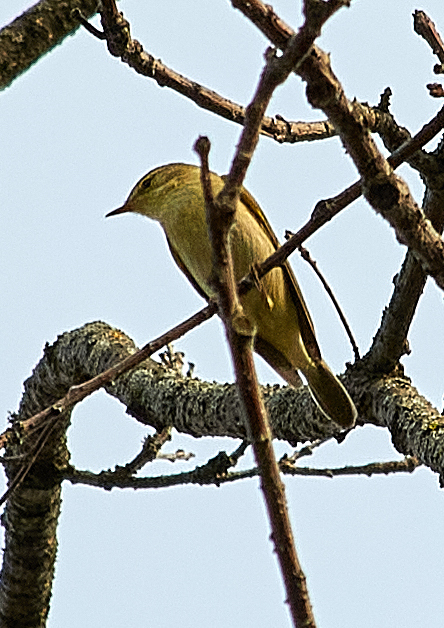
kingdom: Animalia
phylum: Chordata
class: Aves
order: Passeriformes
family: Phylloscopidae
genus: Phylloscopus
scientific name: Phylloscopus trochilus
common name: Willow warbler
